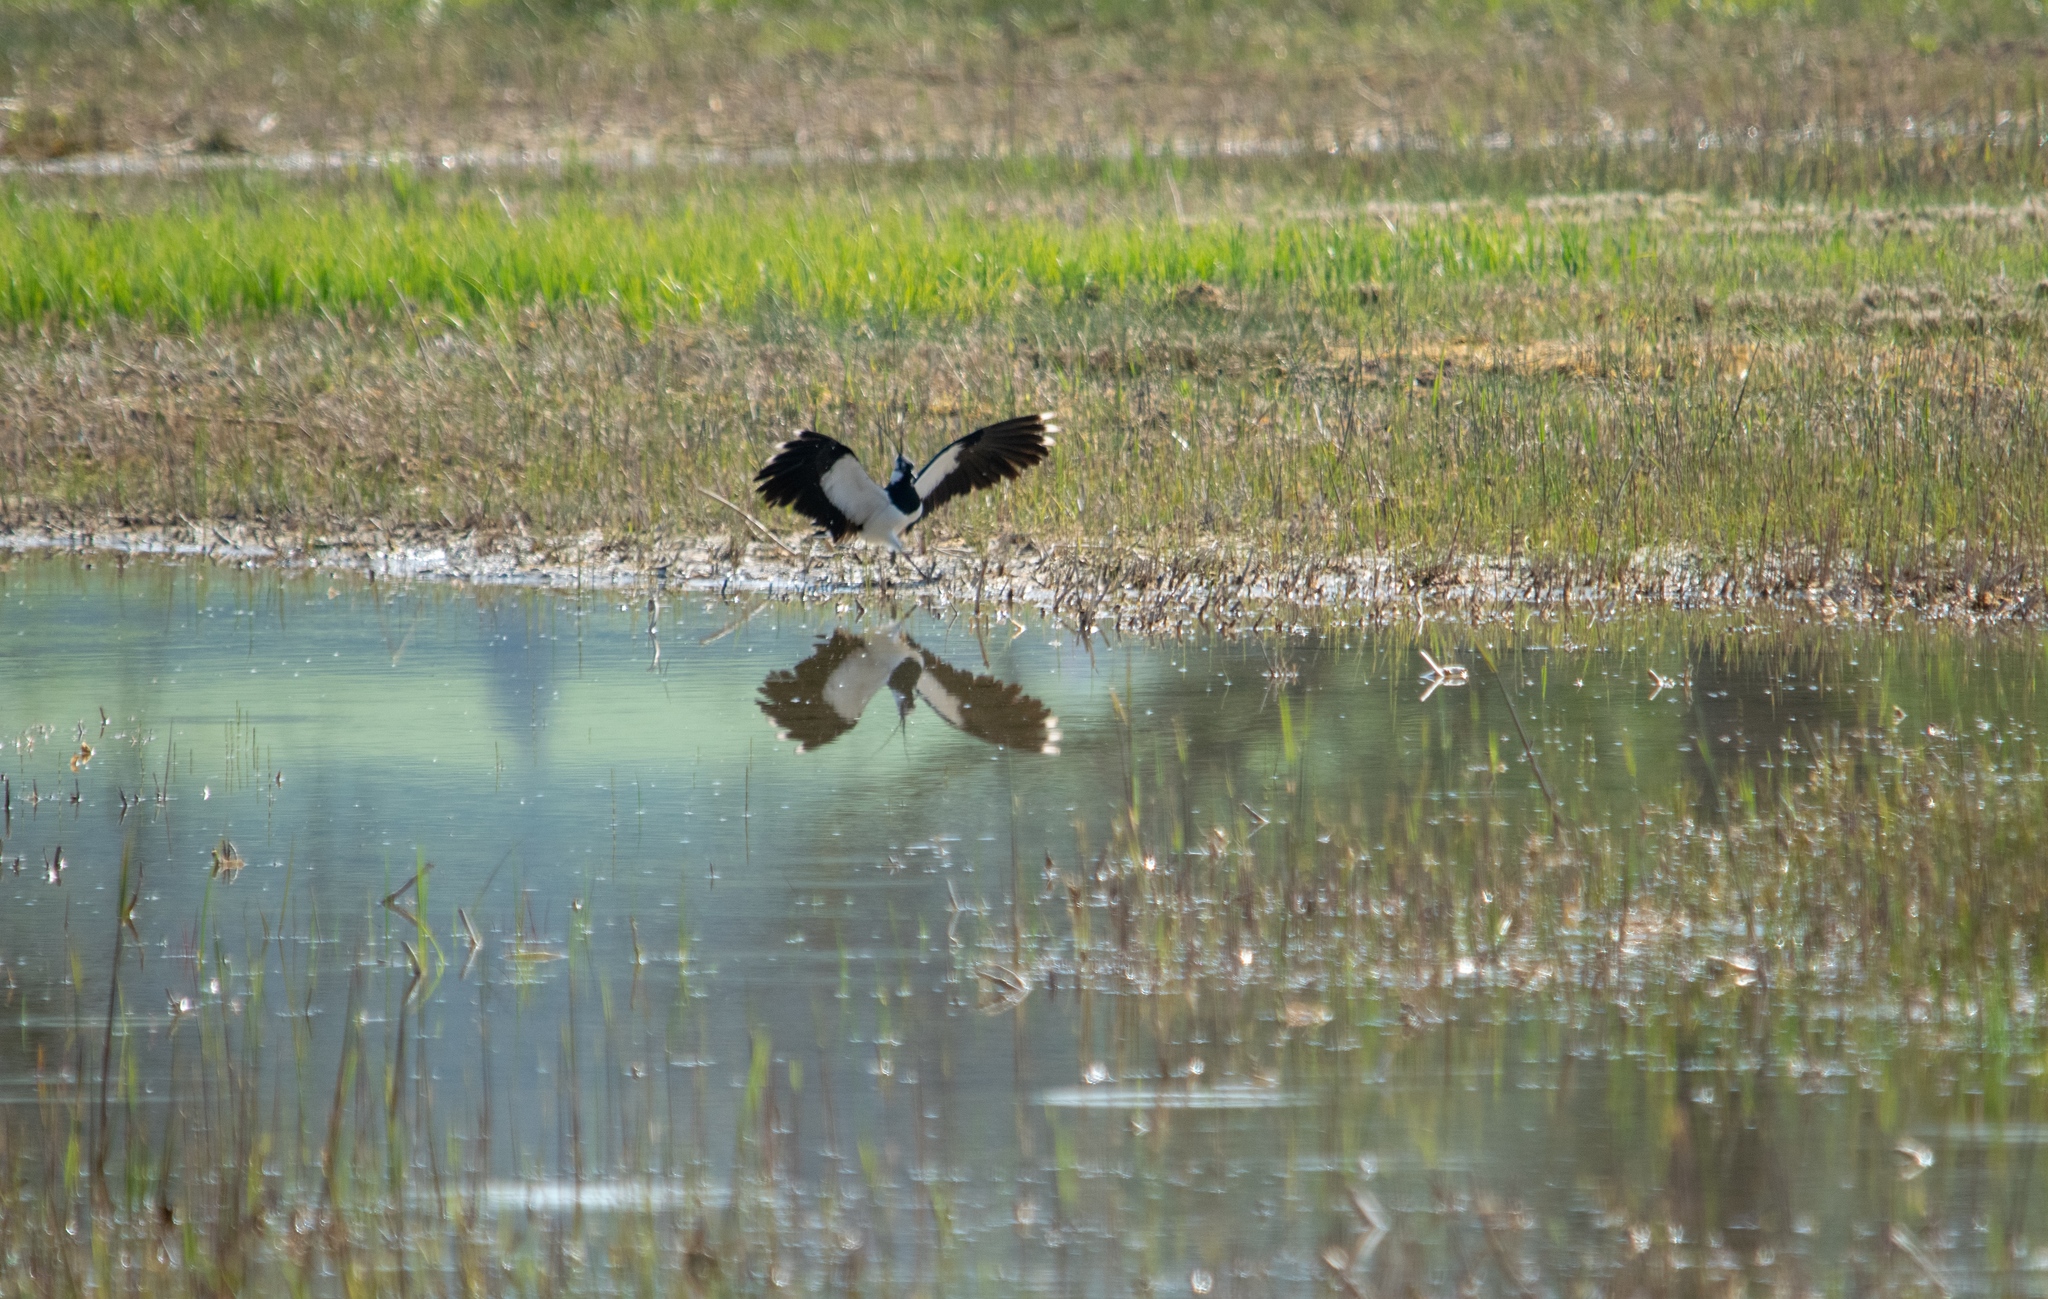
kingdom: Animalia
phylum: Chordata
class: Aves
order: Charadriiformes
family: Charadriidae
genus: Vanellus
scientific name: Vanellus vanellus
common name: Northern lapwing
